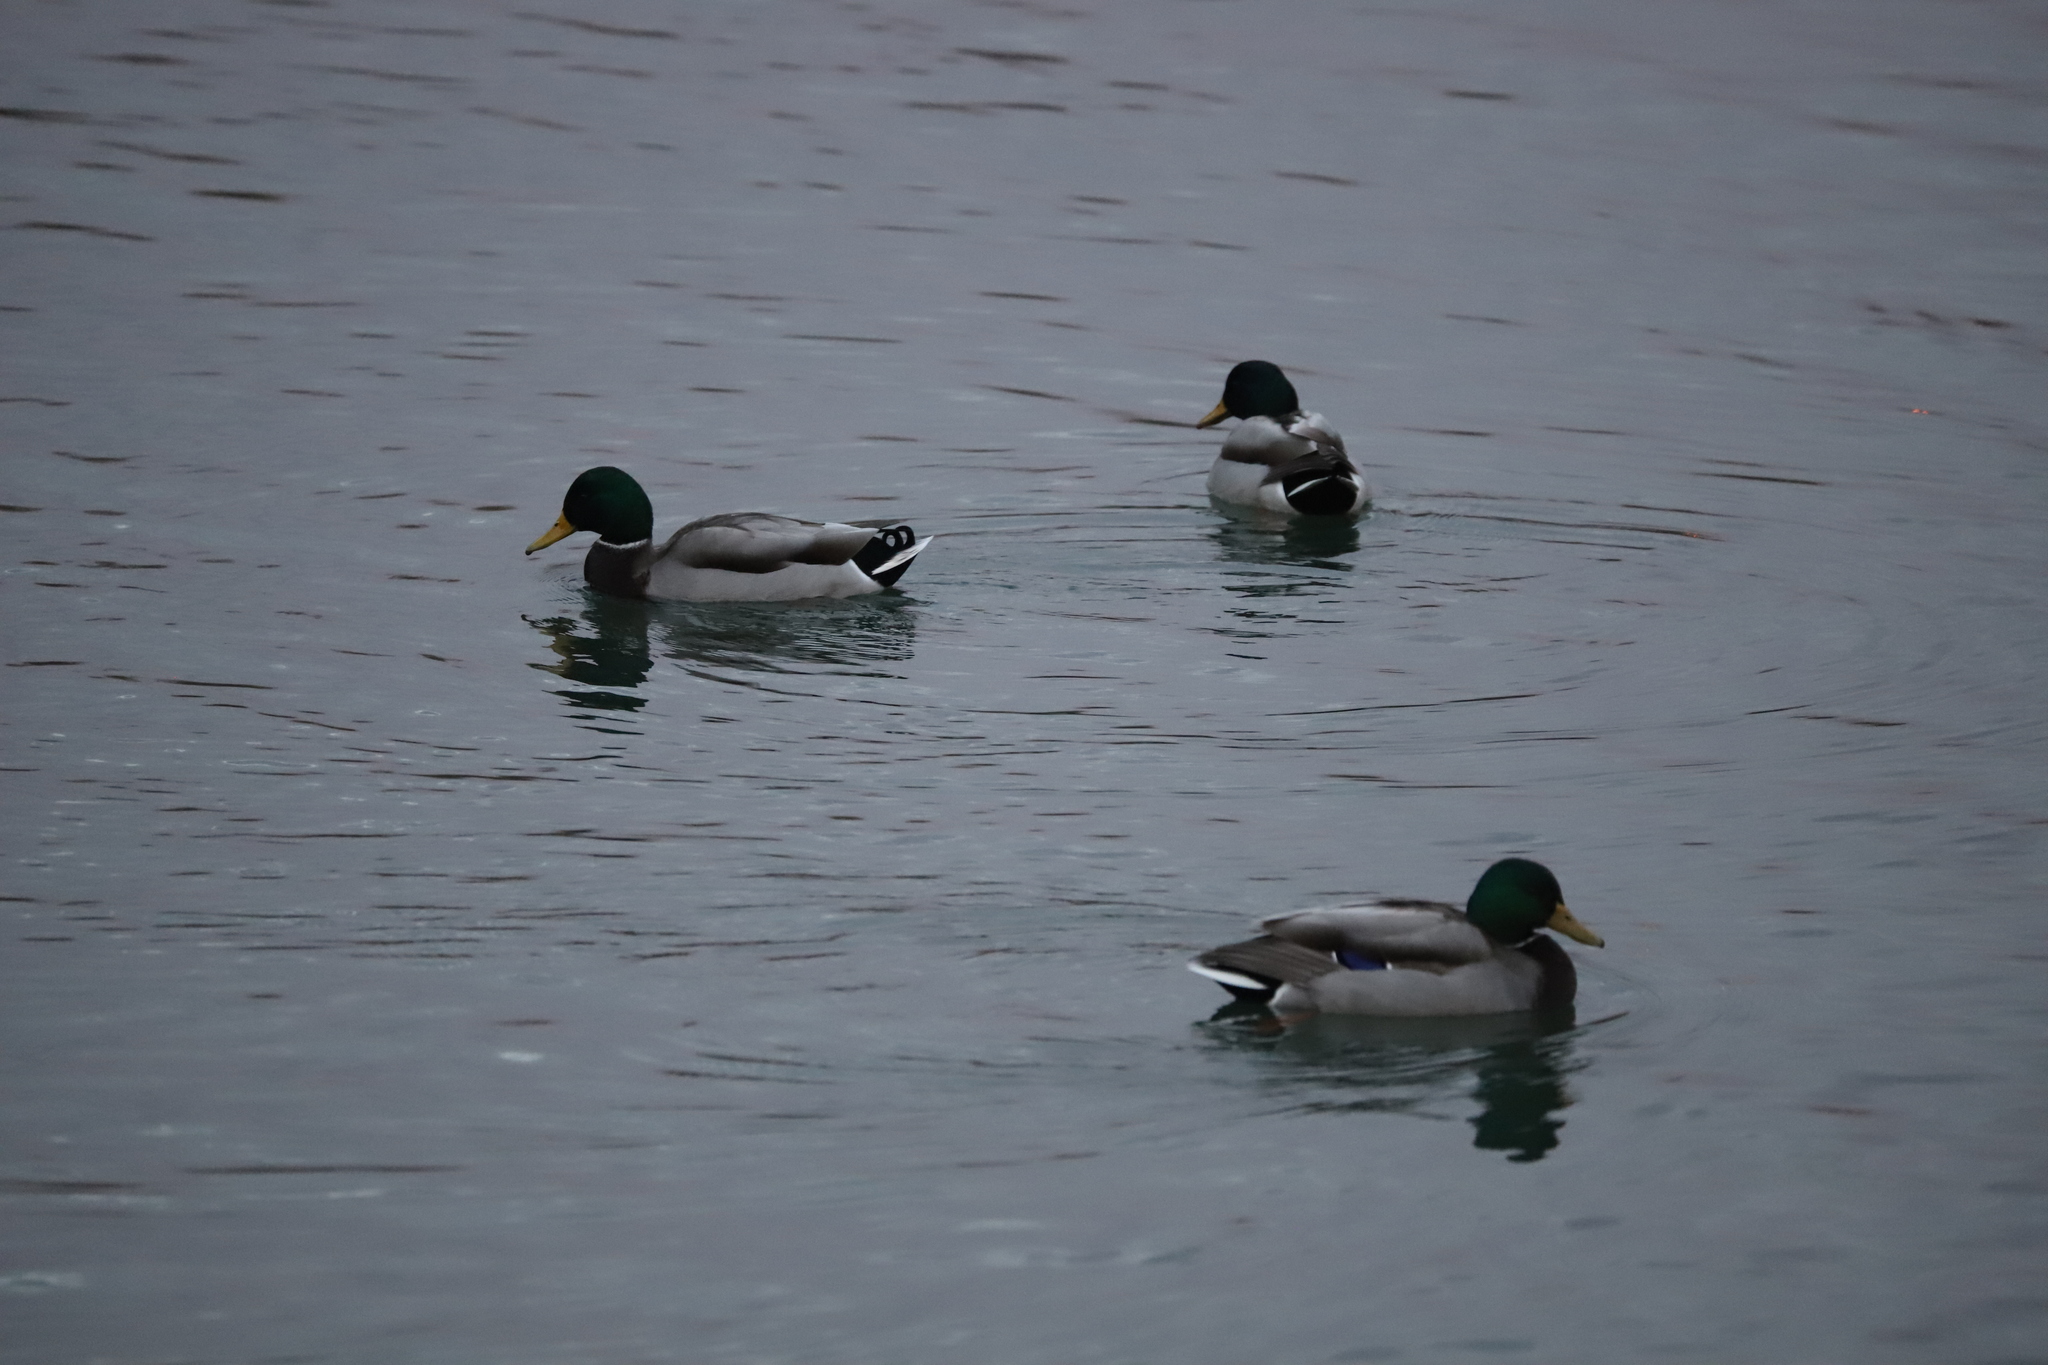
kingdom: Animalia
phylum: Chordata
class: Aves
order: Anseriformes
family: Anatidae
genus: Anas
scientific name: Anas platyrhynchos
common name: Mallard
